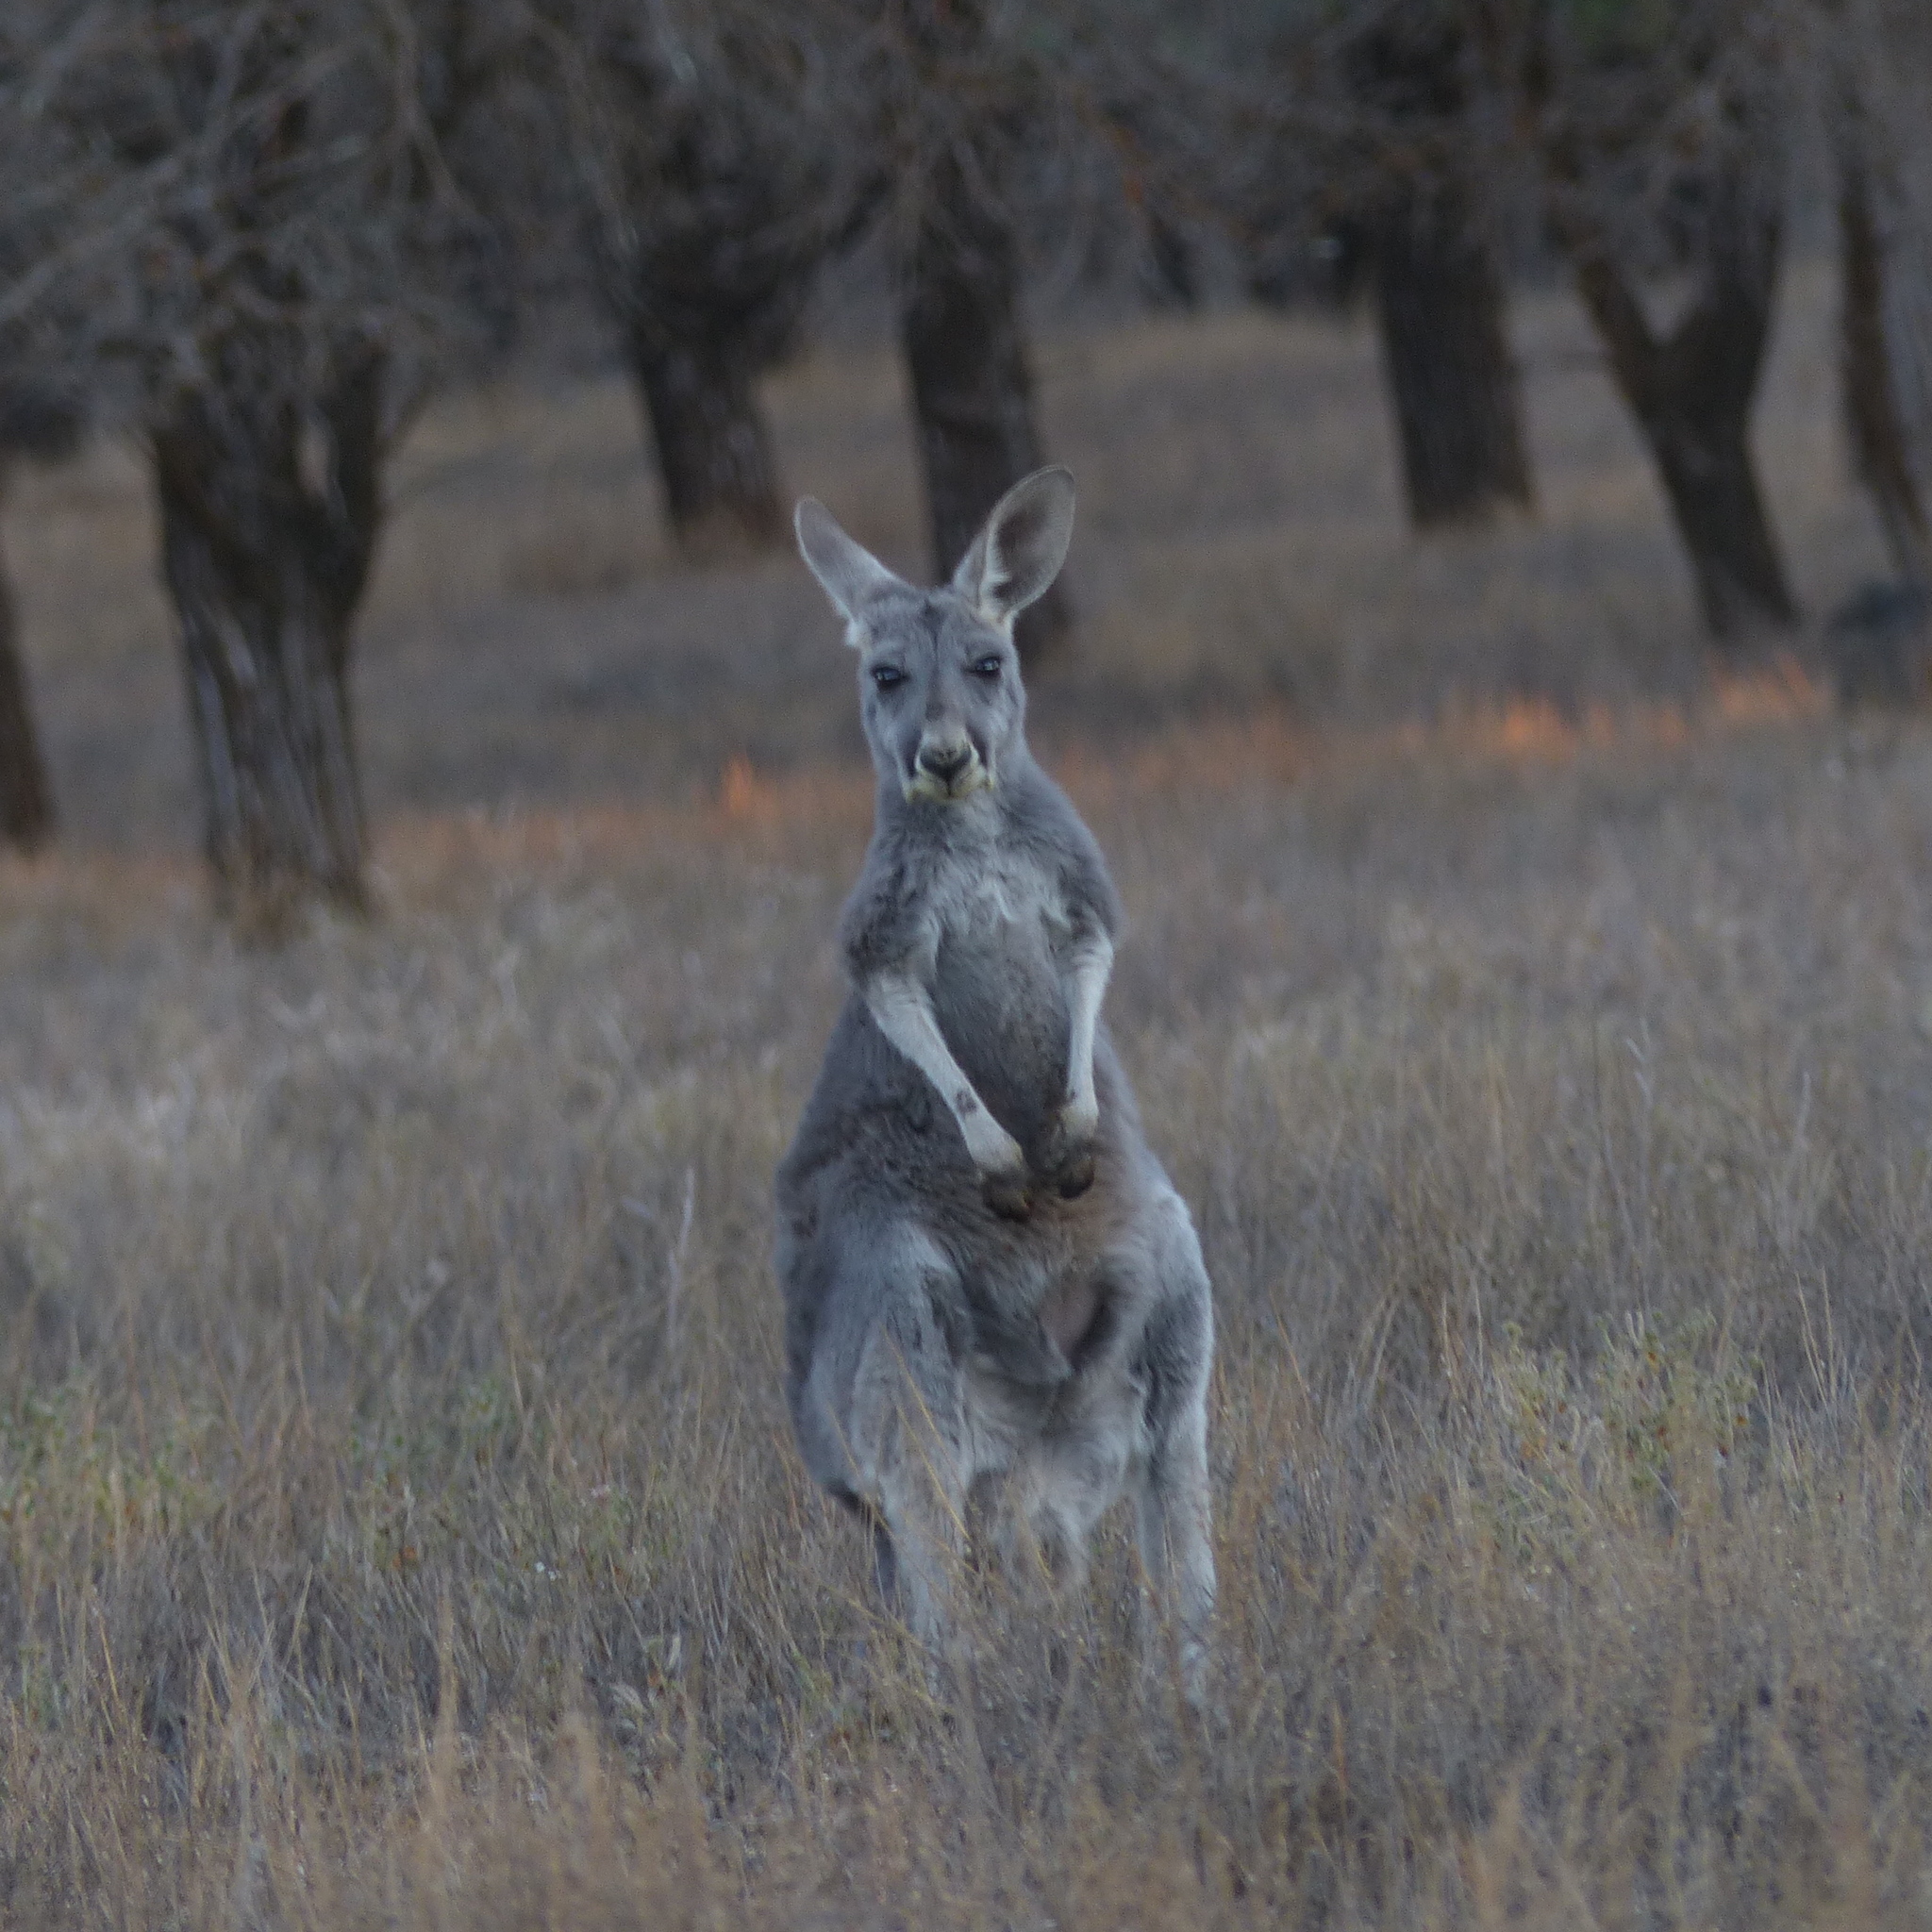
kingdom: Animalia
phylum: Chordata
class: Mammalia
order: Diprotodontia
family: Macropodidae
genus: Macropus
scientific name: Macropus rufus
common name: Red kangaroo
